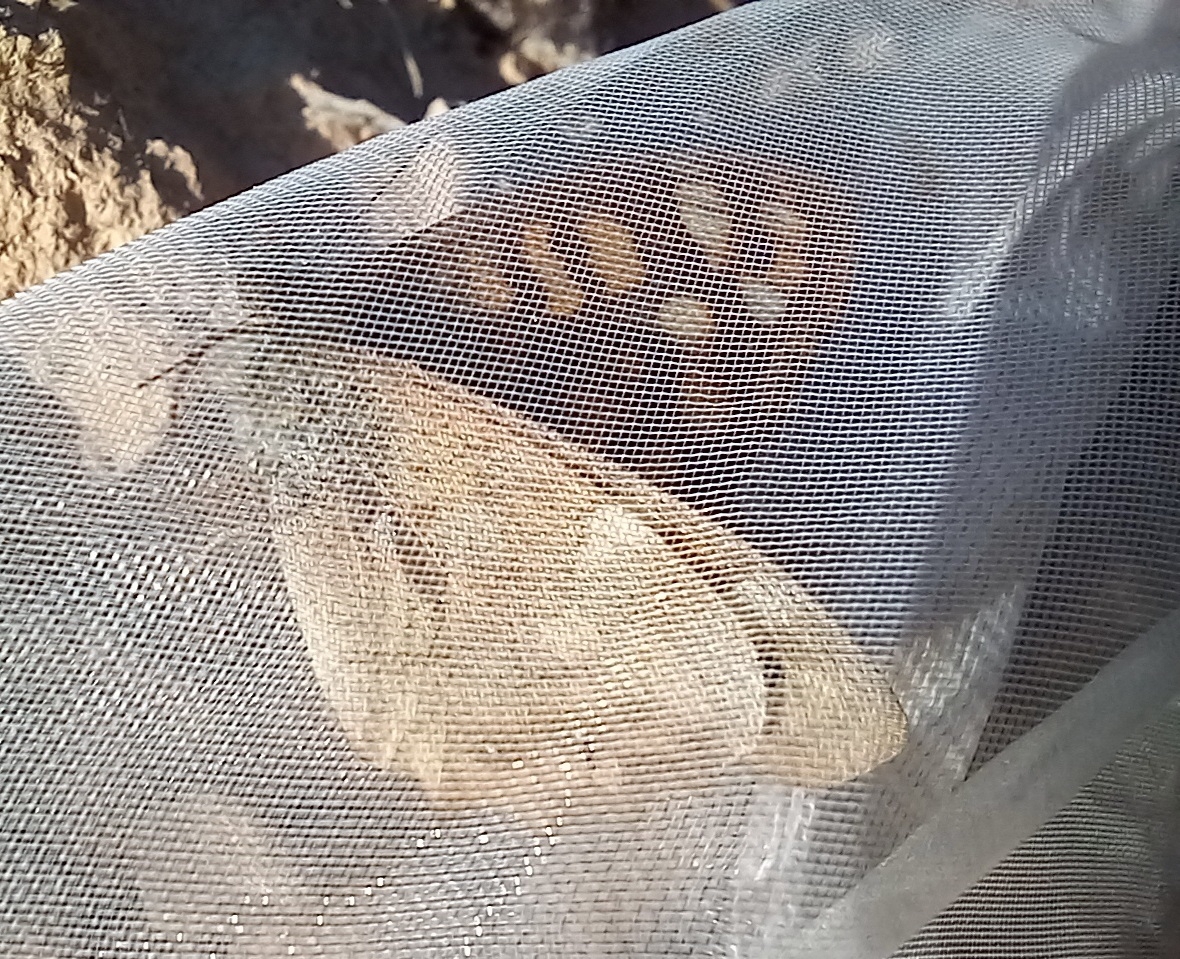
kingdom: Animalia
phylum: Arthropoda
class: Insecta
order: Lepidoptera
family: Nymphalidae
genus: Pararge
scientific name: Pararge aegeria
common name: Speckled wood
